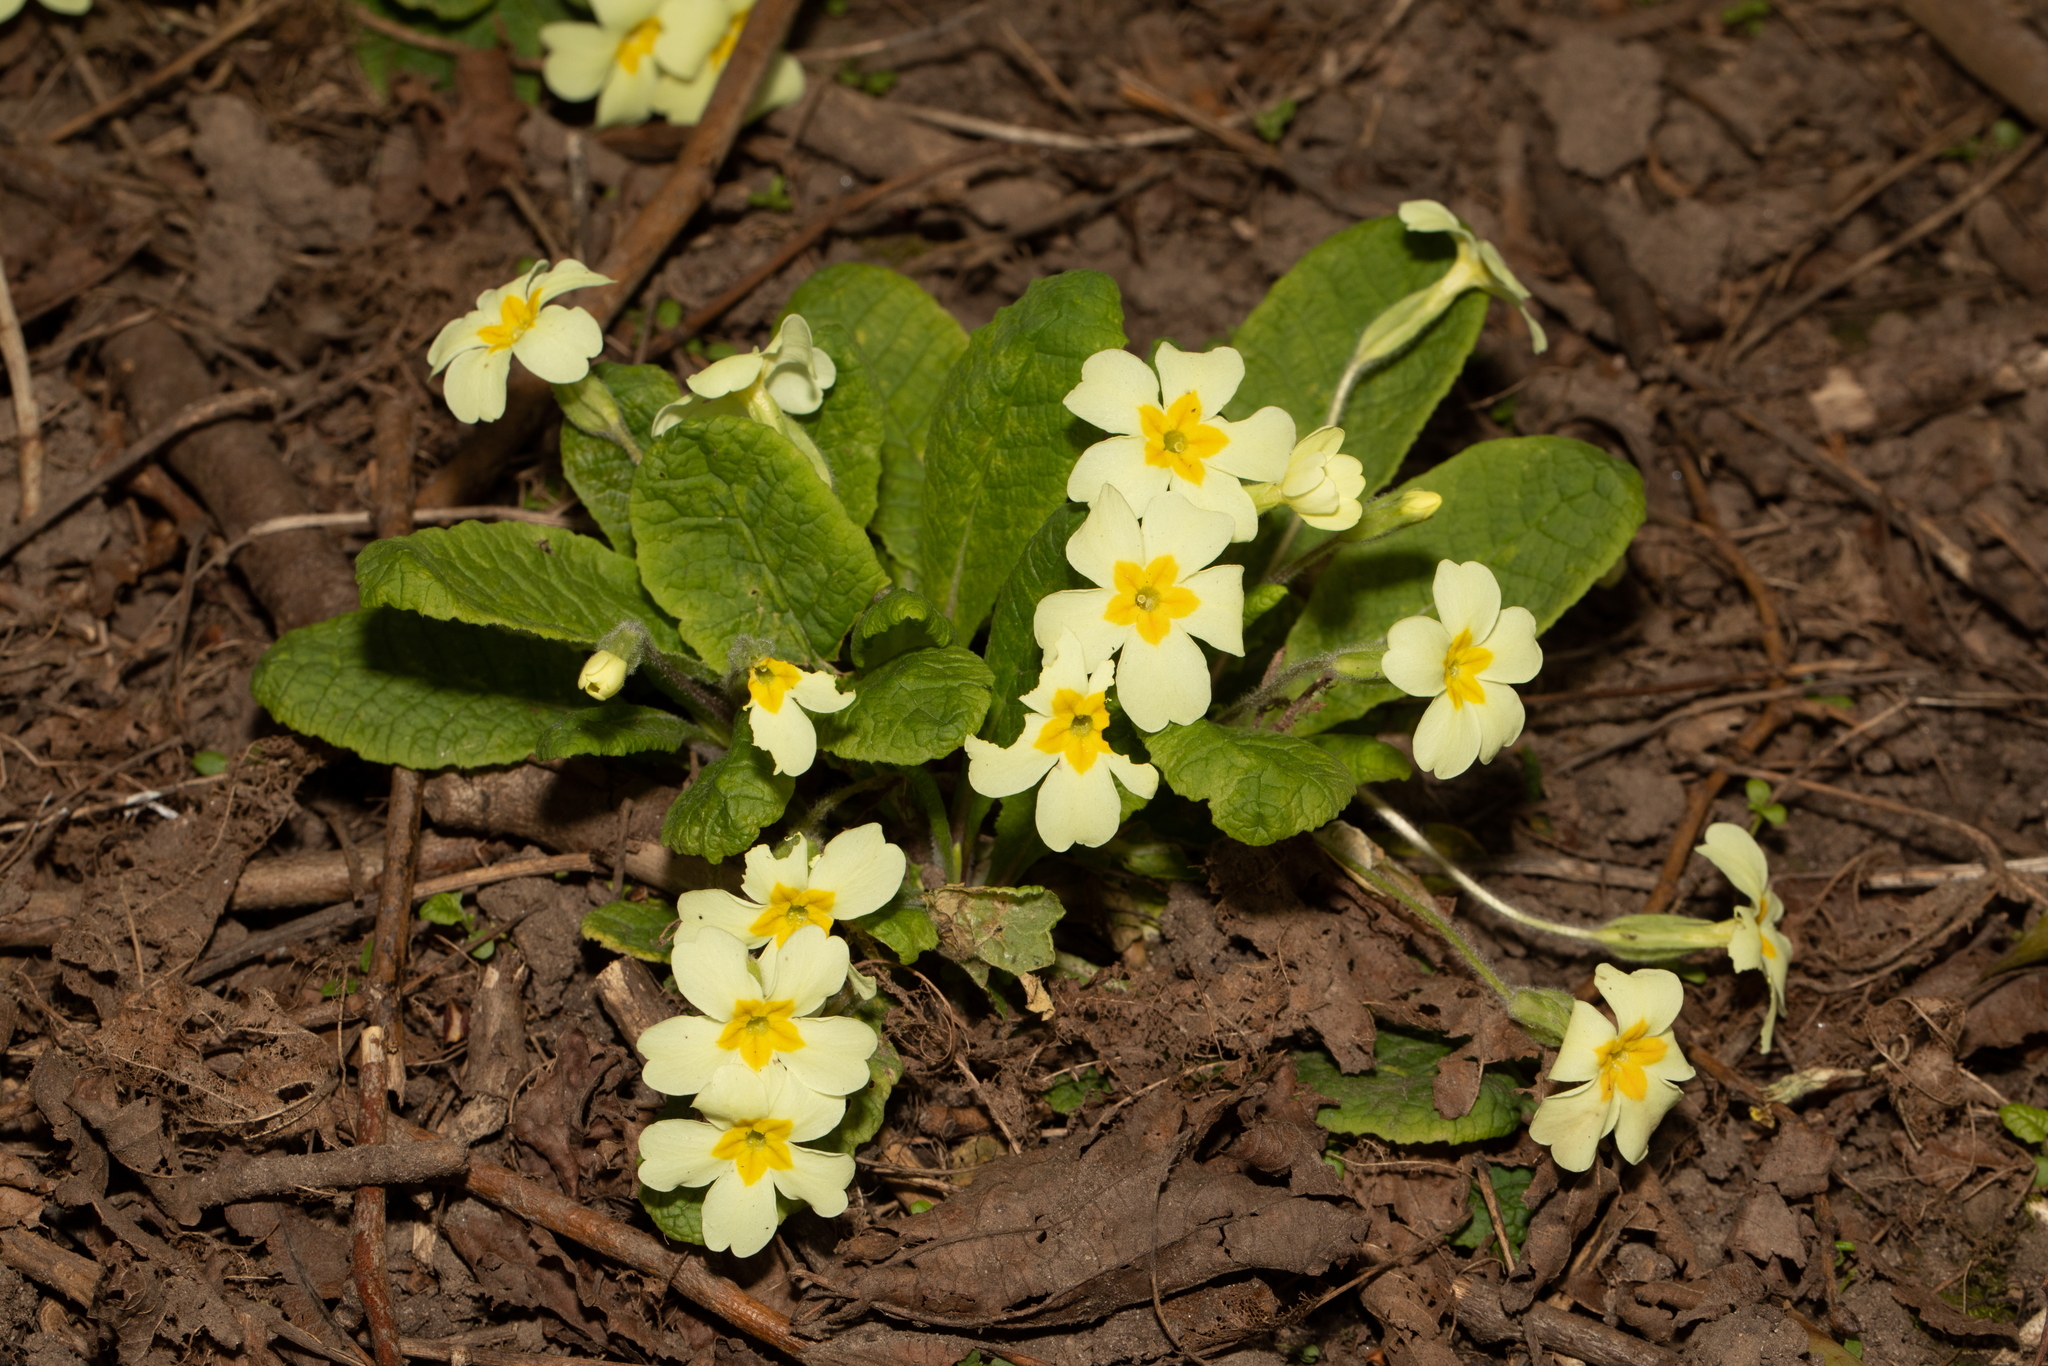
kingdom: Plantae
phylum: Tracheophyta
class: Magnoliopsida
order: Ericales
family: Primulaceae
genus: Primula
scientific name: Primula vulgaris
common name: Primrose
